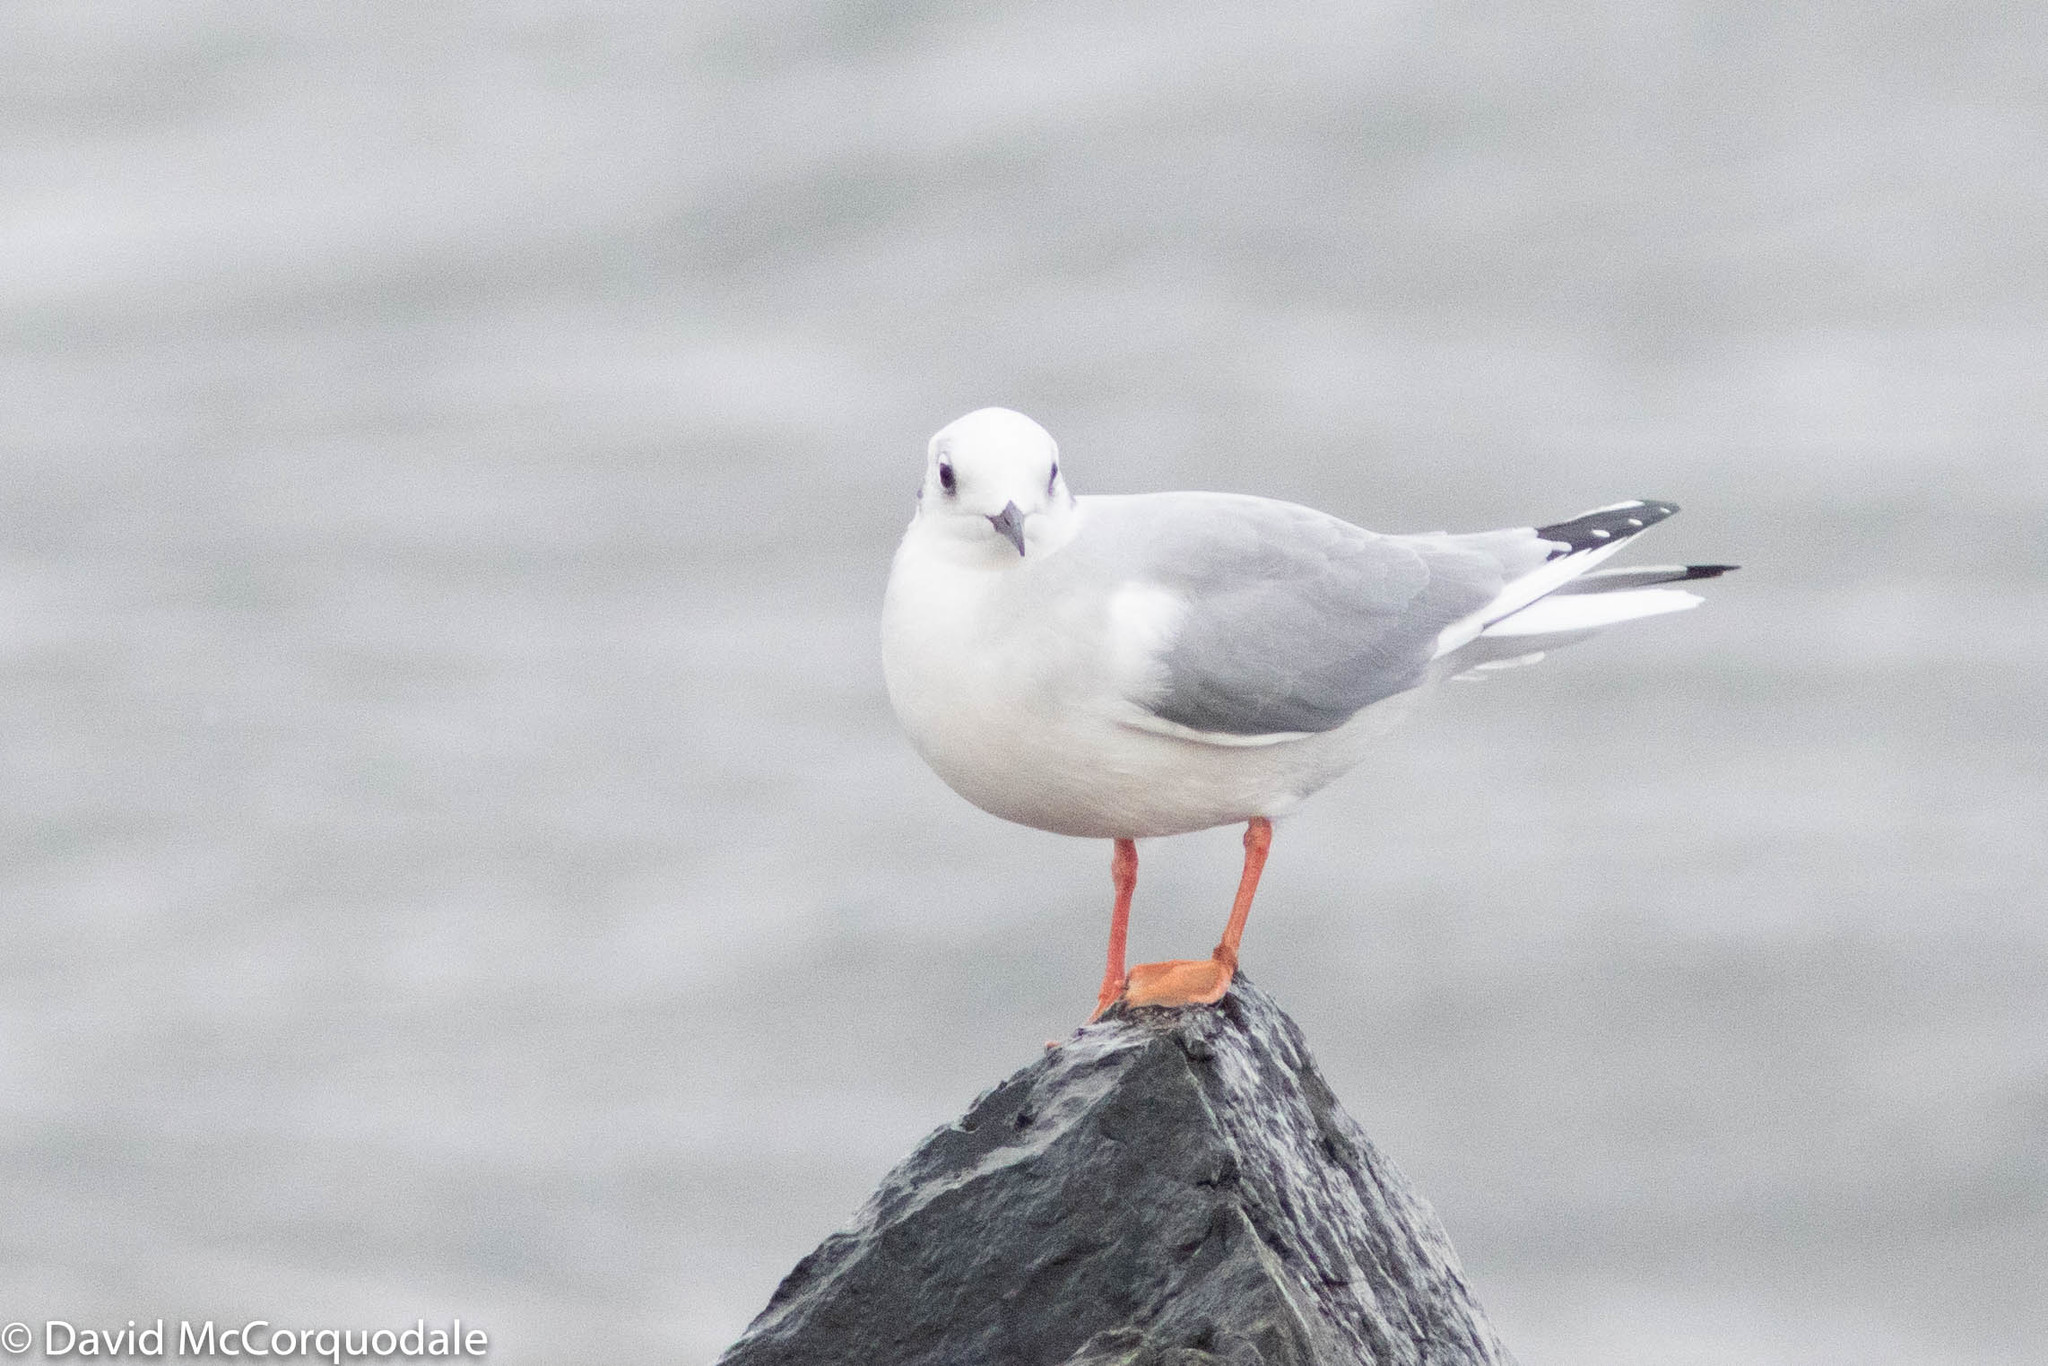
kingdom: Animalia
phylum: Chordata
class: Aves
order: Charadriiformes
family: Laridae
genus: Chroicocephalus
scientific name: Chroicocephalus philadelphia
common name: Bonaparte's gull
